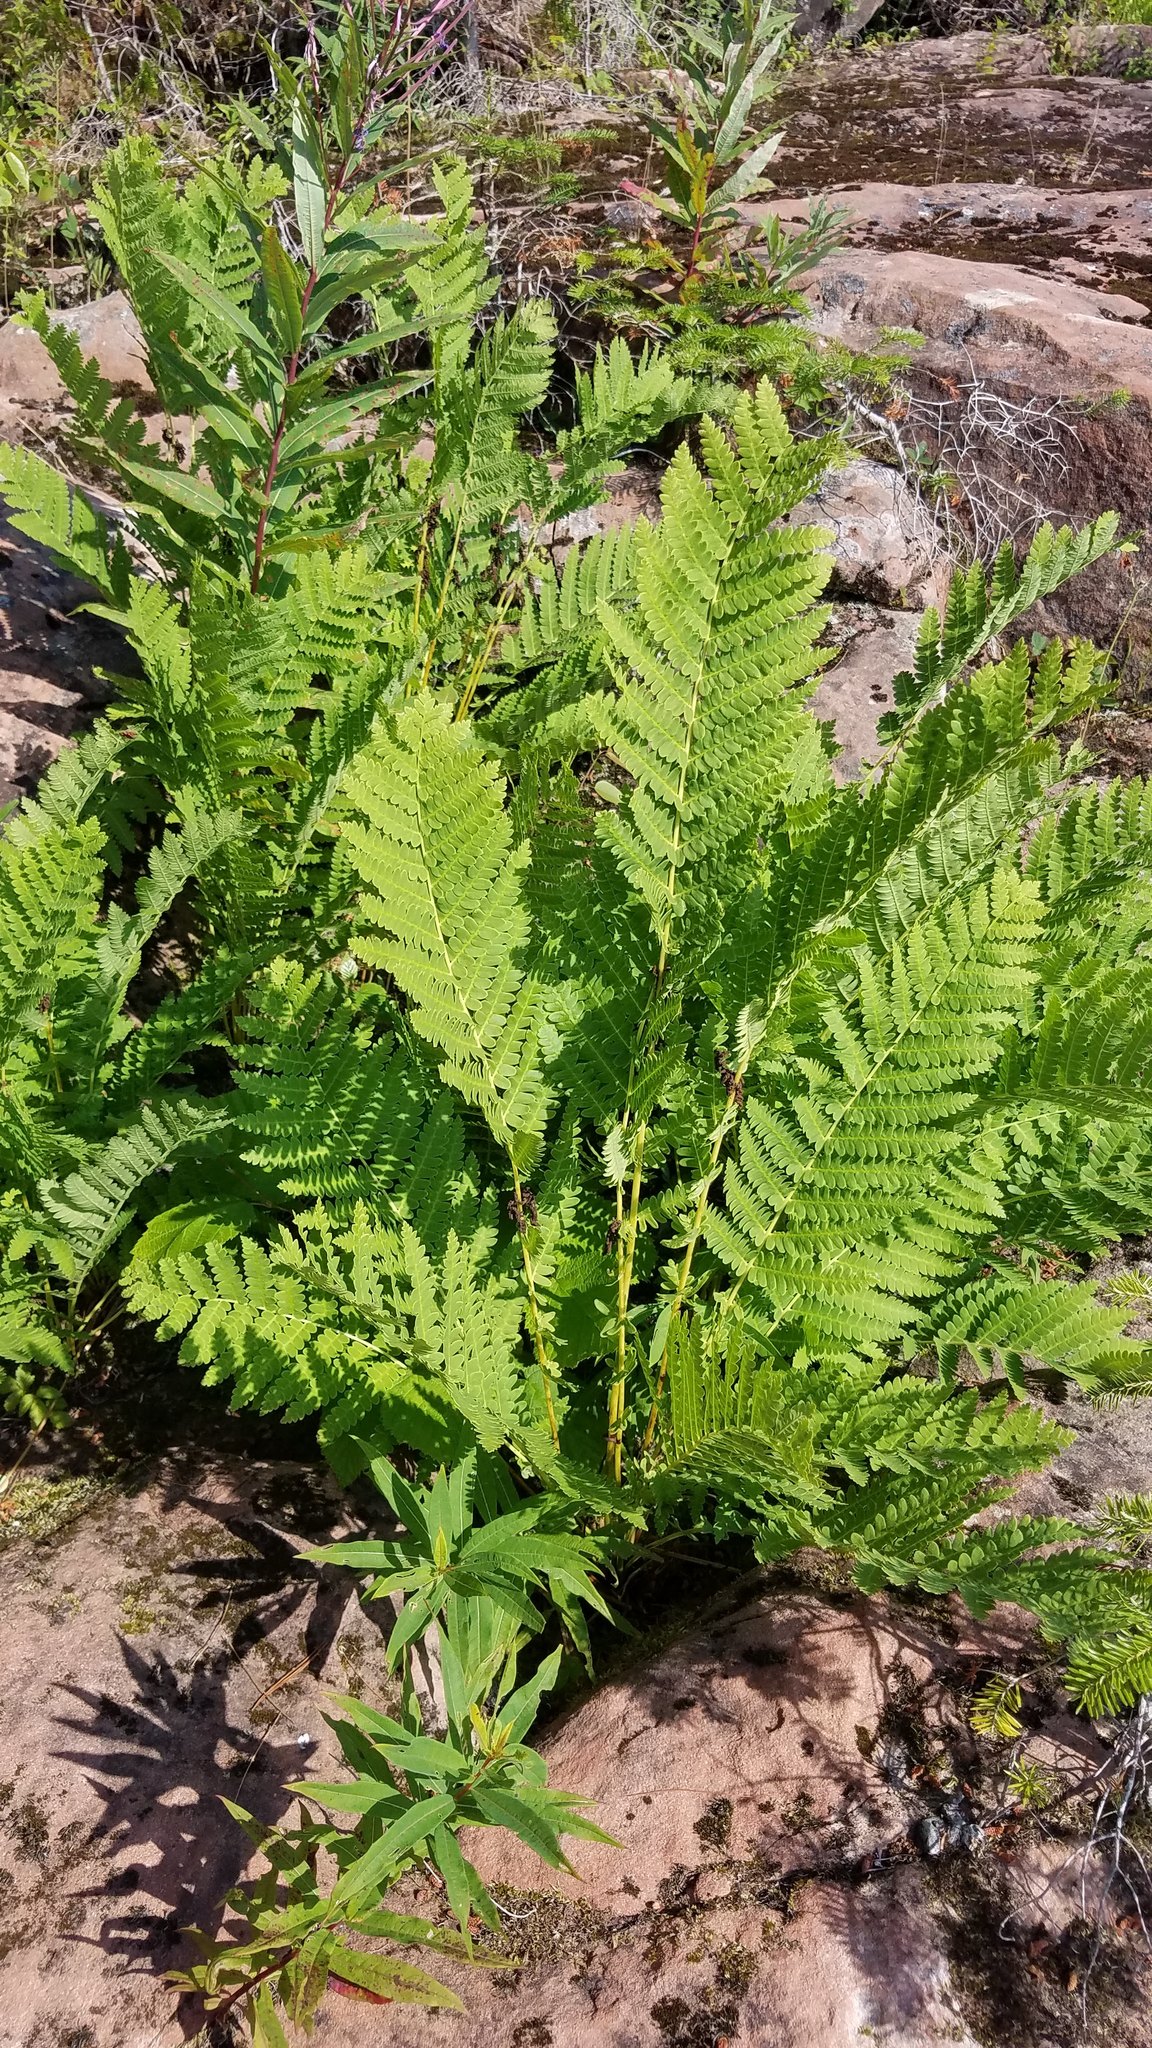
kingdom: Plantae
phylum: Tracheophyta
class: Polypodiopsida
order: Osmundales
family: Osmundaceae
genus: Claytosmunda
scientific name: Claytosmunda claytoniana
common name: Clayton's fern
